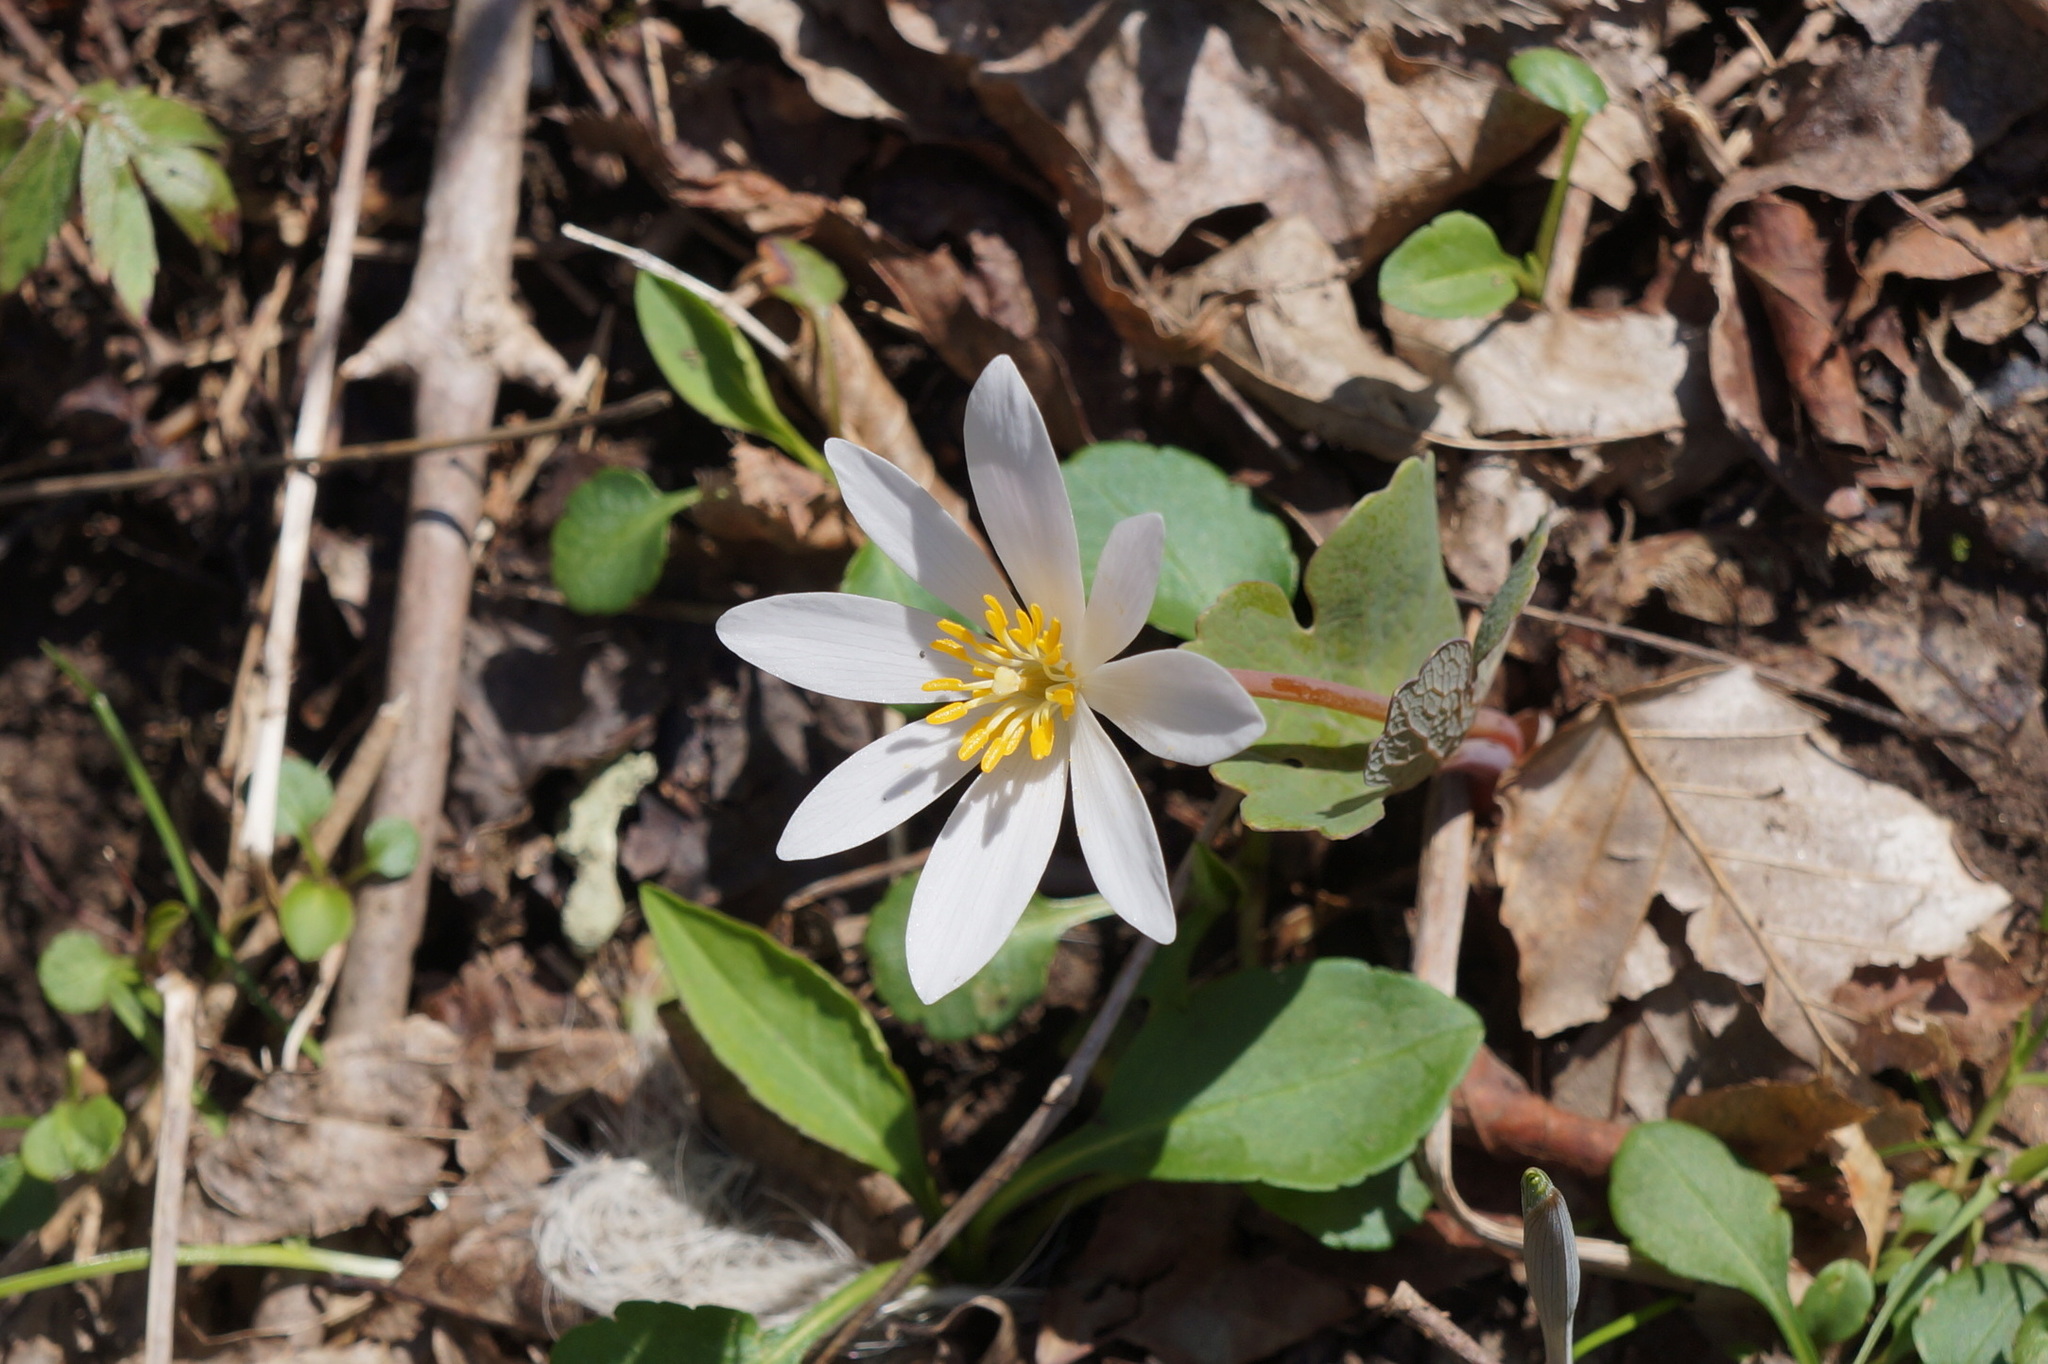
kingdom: Plantae
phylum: Tracheophyta
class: Magnoliopsida
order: Ranunculales
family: Papaveraceae
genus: Sanguinaria
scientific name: Sanguinaria canadensis
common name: Bloodroot
